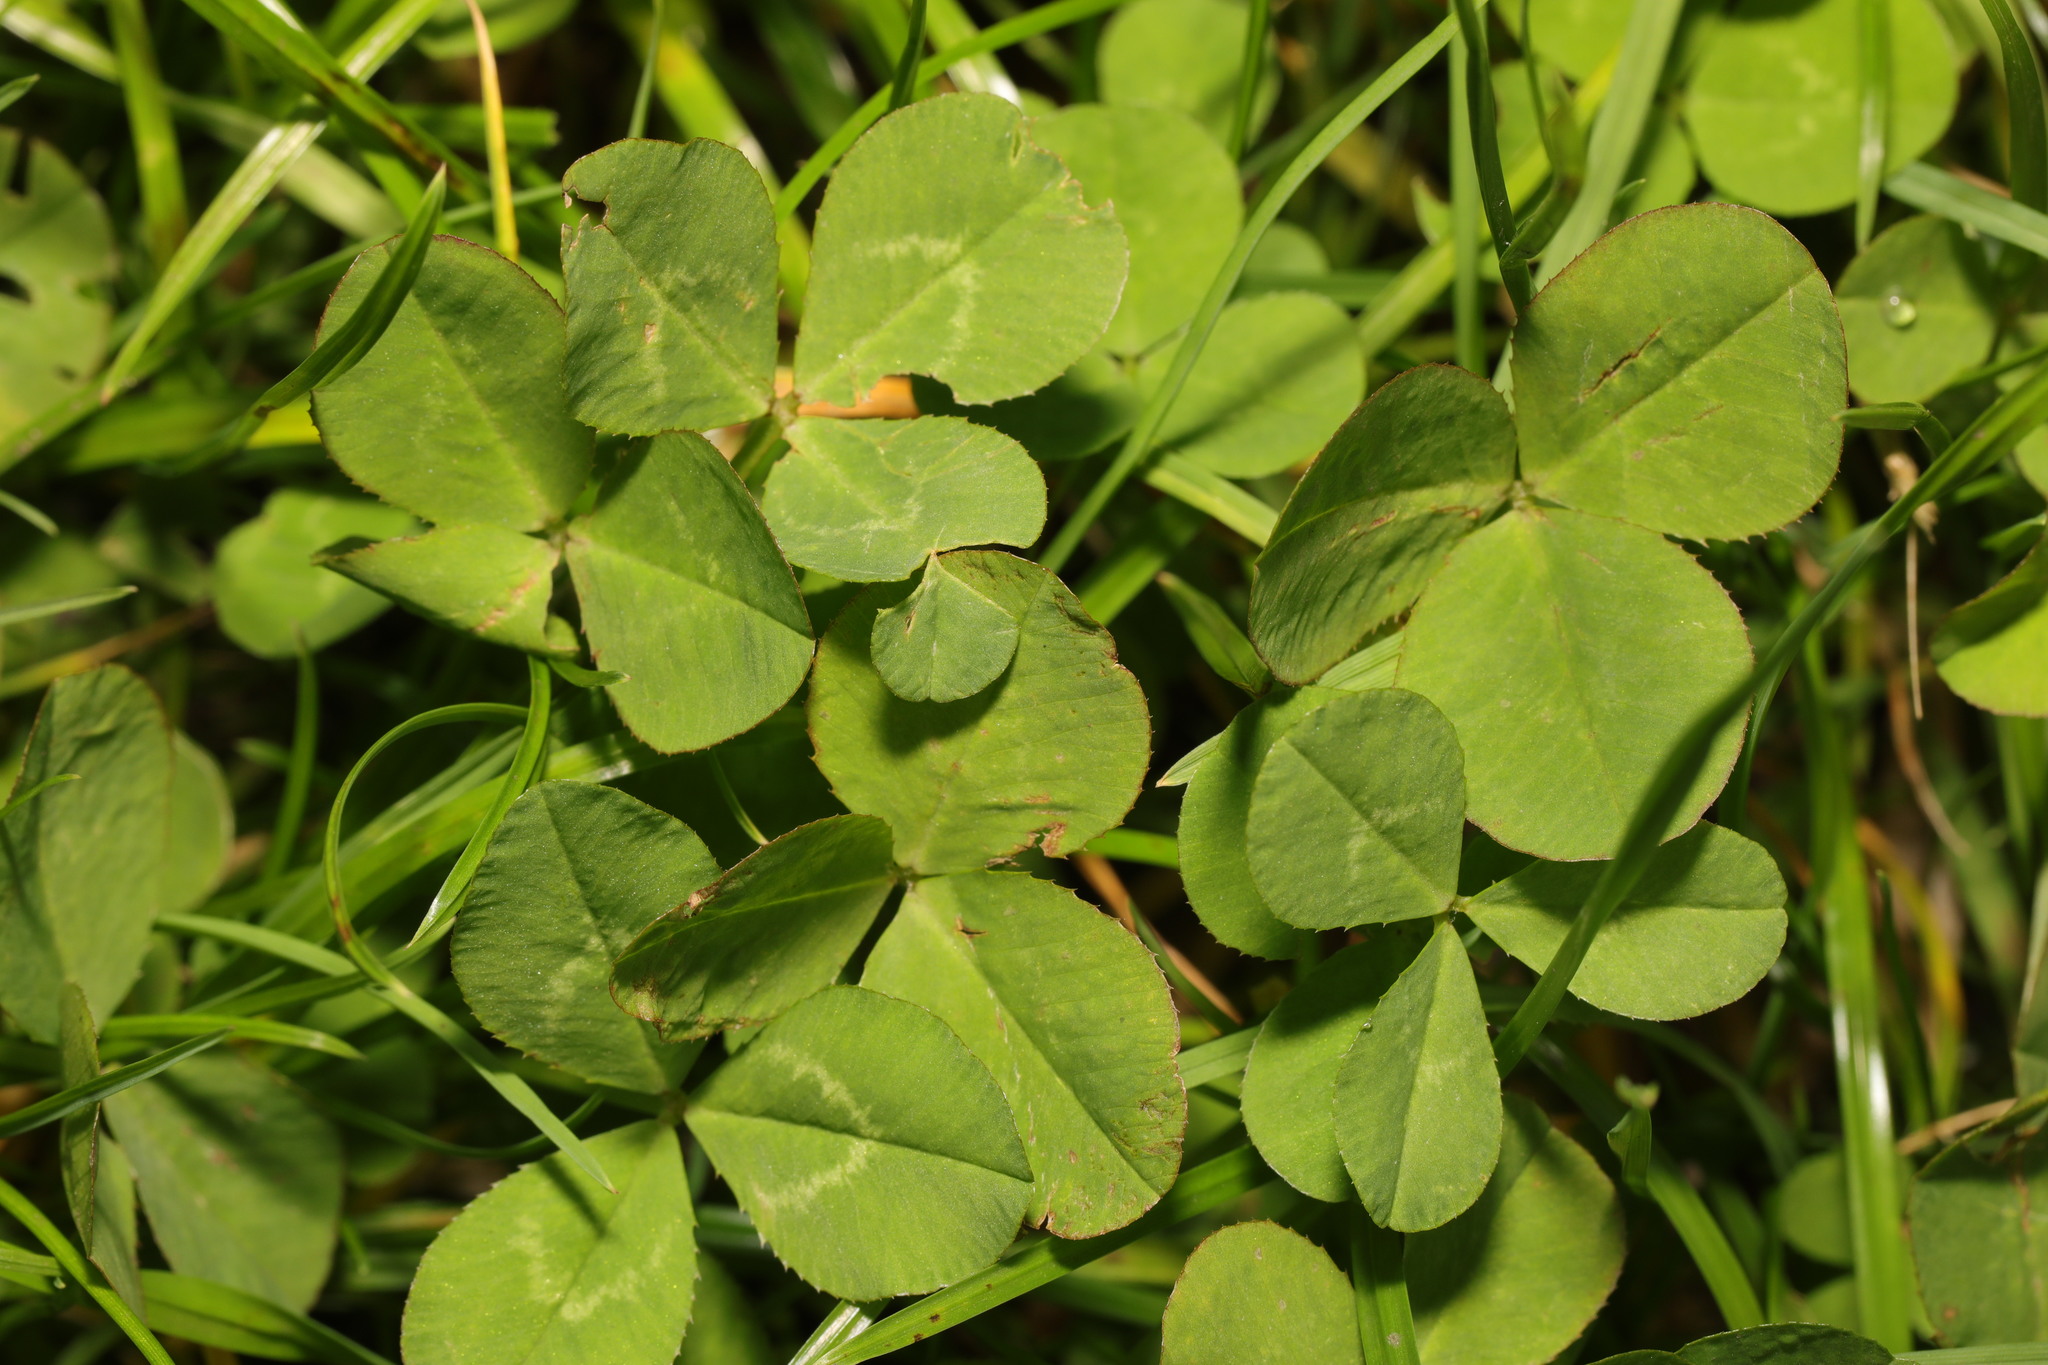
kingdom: Plantae
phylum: Tracheophyta
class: Magnoliopsida
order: Fabales
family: Fabaceae
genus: Trifolium
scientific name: Trifolium repens
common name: White clover
